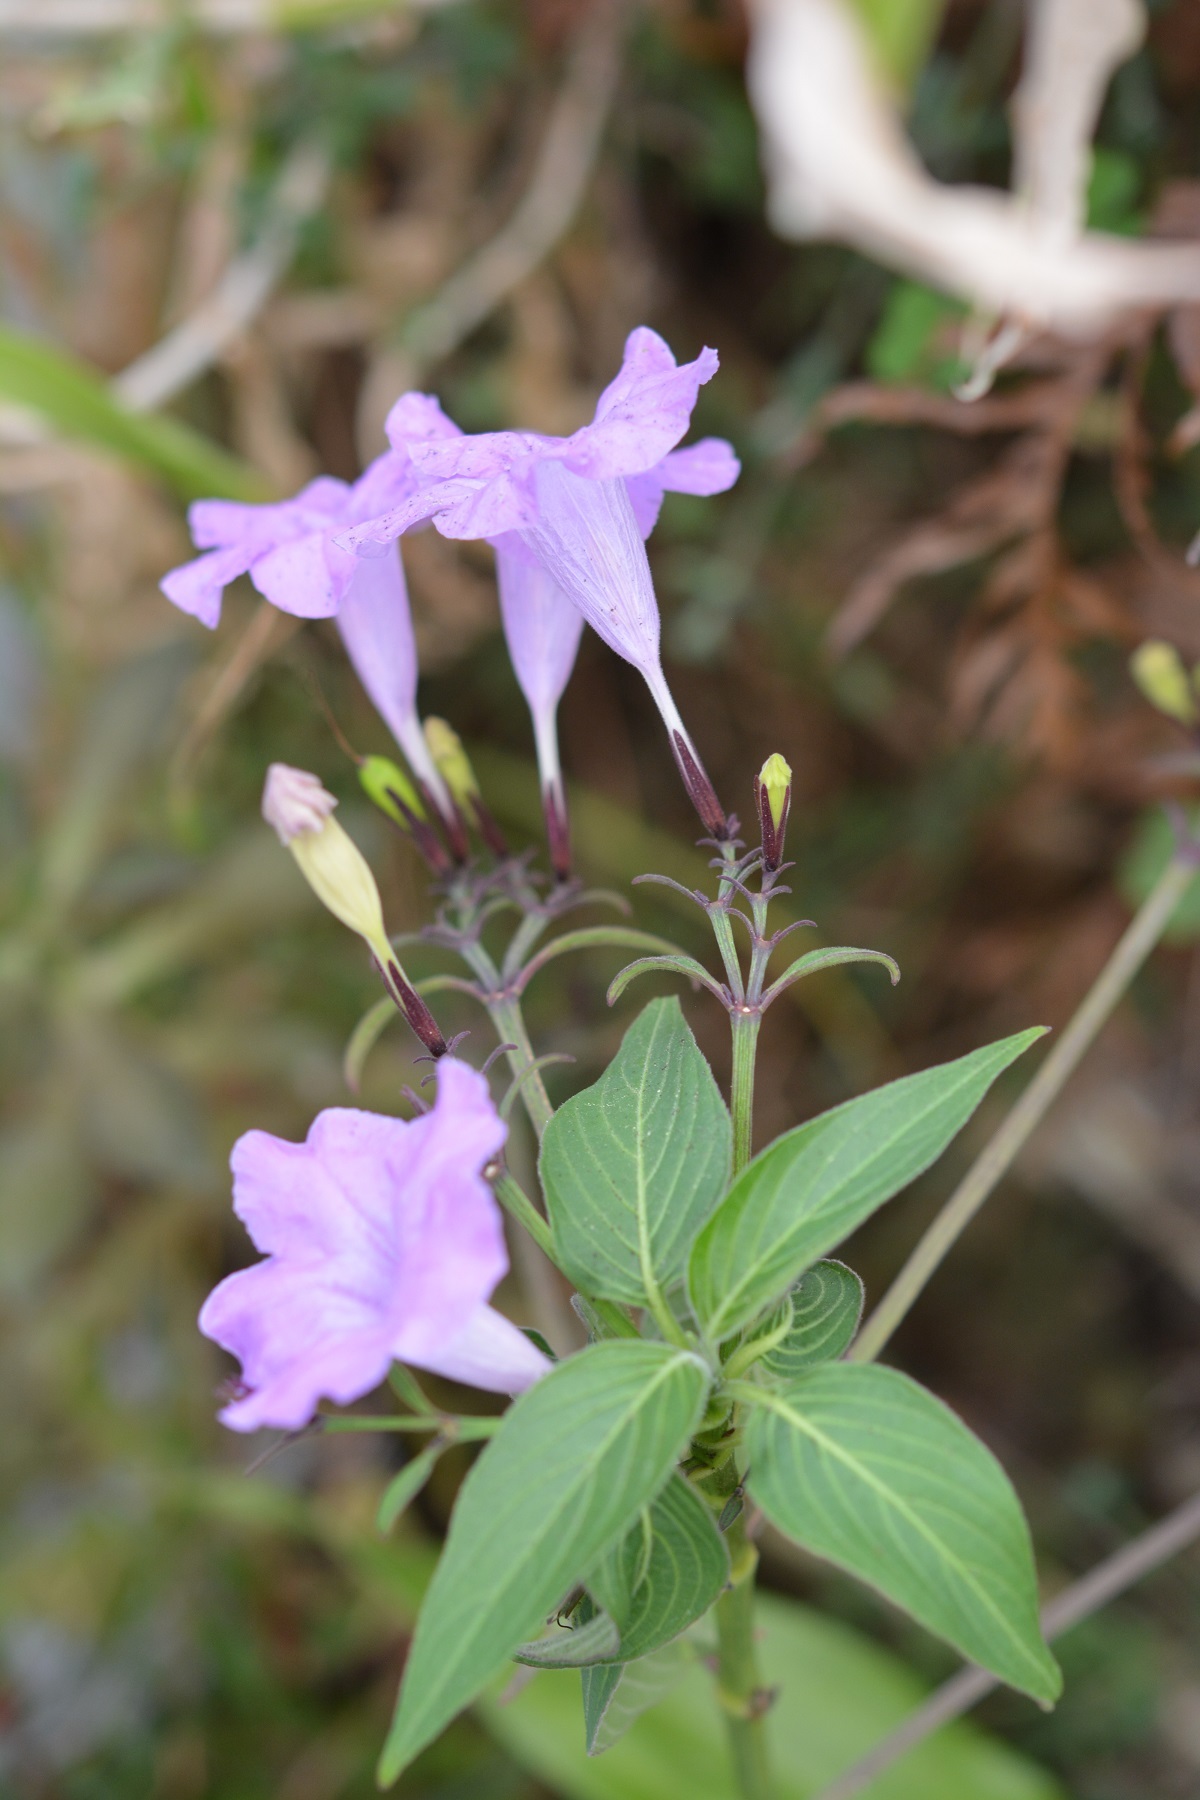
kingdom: Plantae
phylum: Tracheophyta
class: Magnoliopsida
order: Lamiales
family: Acanthaceae
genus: Ruellia
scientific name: Ruellia breedlovei
